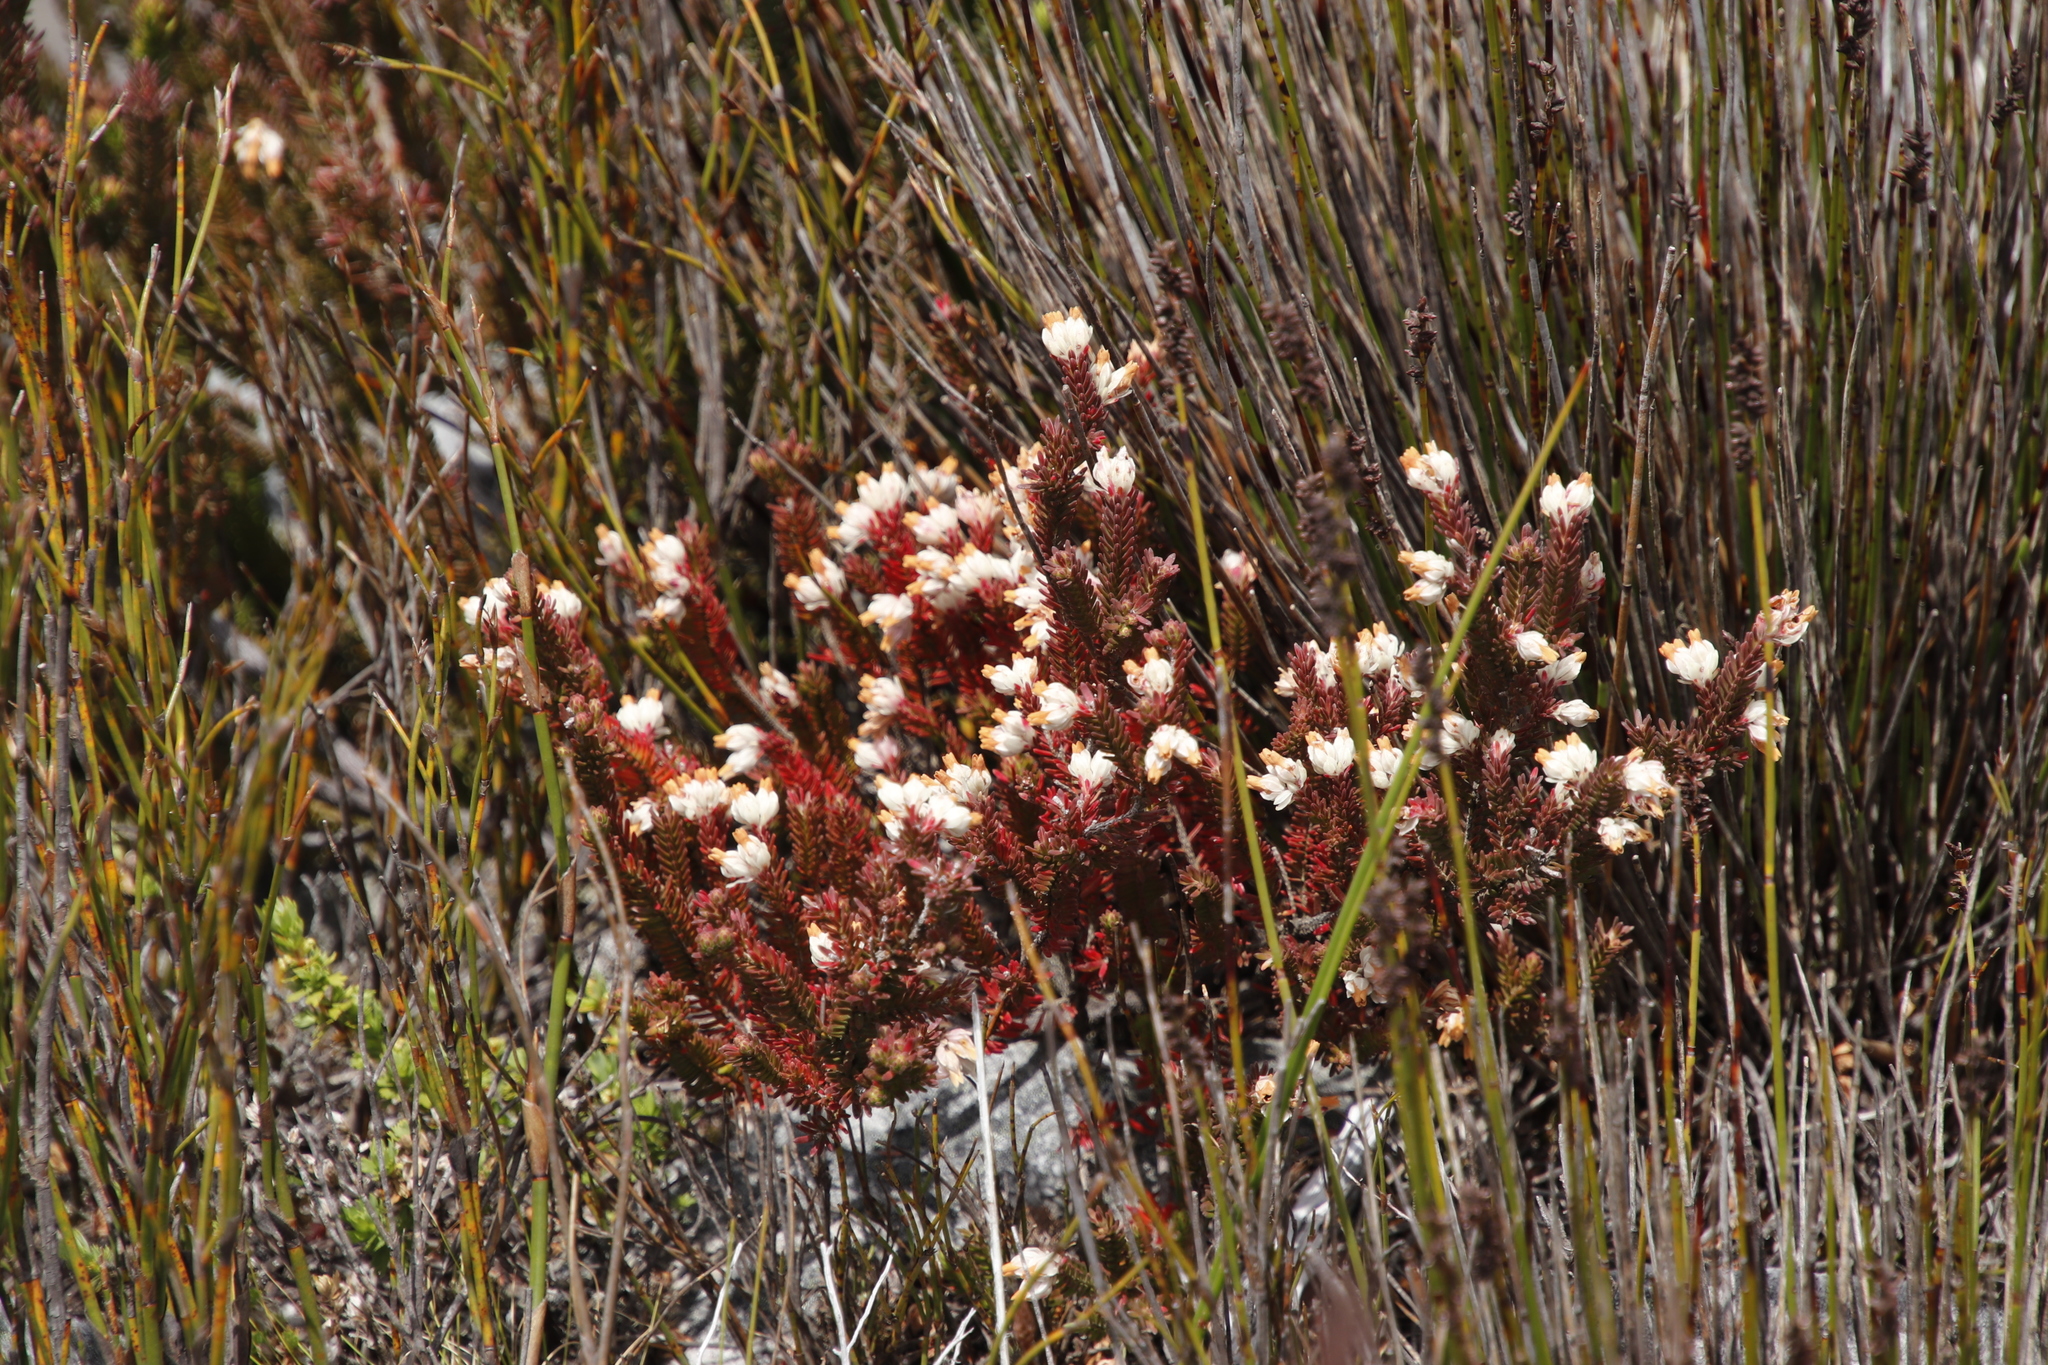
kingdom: Plantae
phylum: Tracheophyta
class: Magnoliopsida
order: Ericales
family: Ericaceae
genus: Erica
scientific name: Erica goatcheriana
